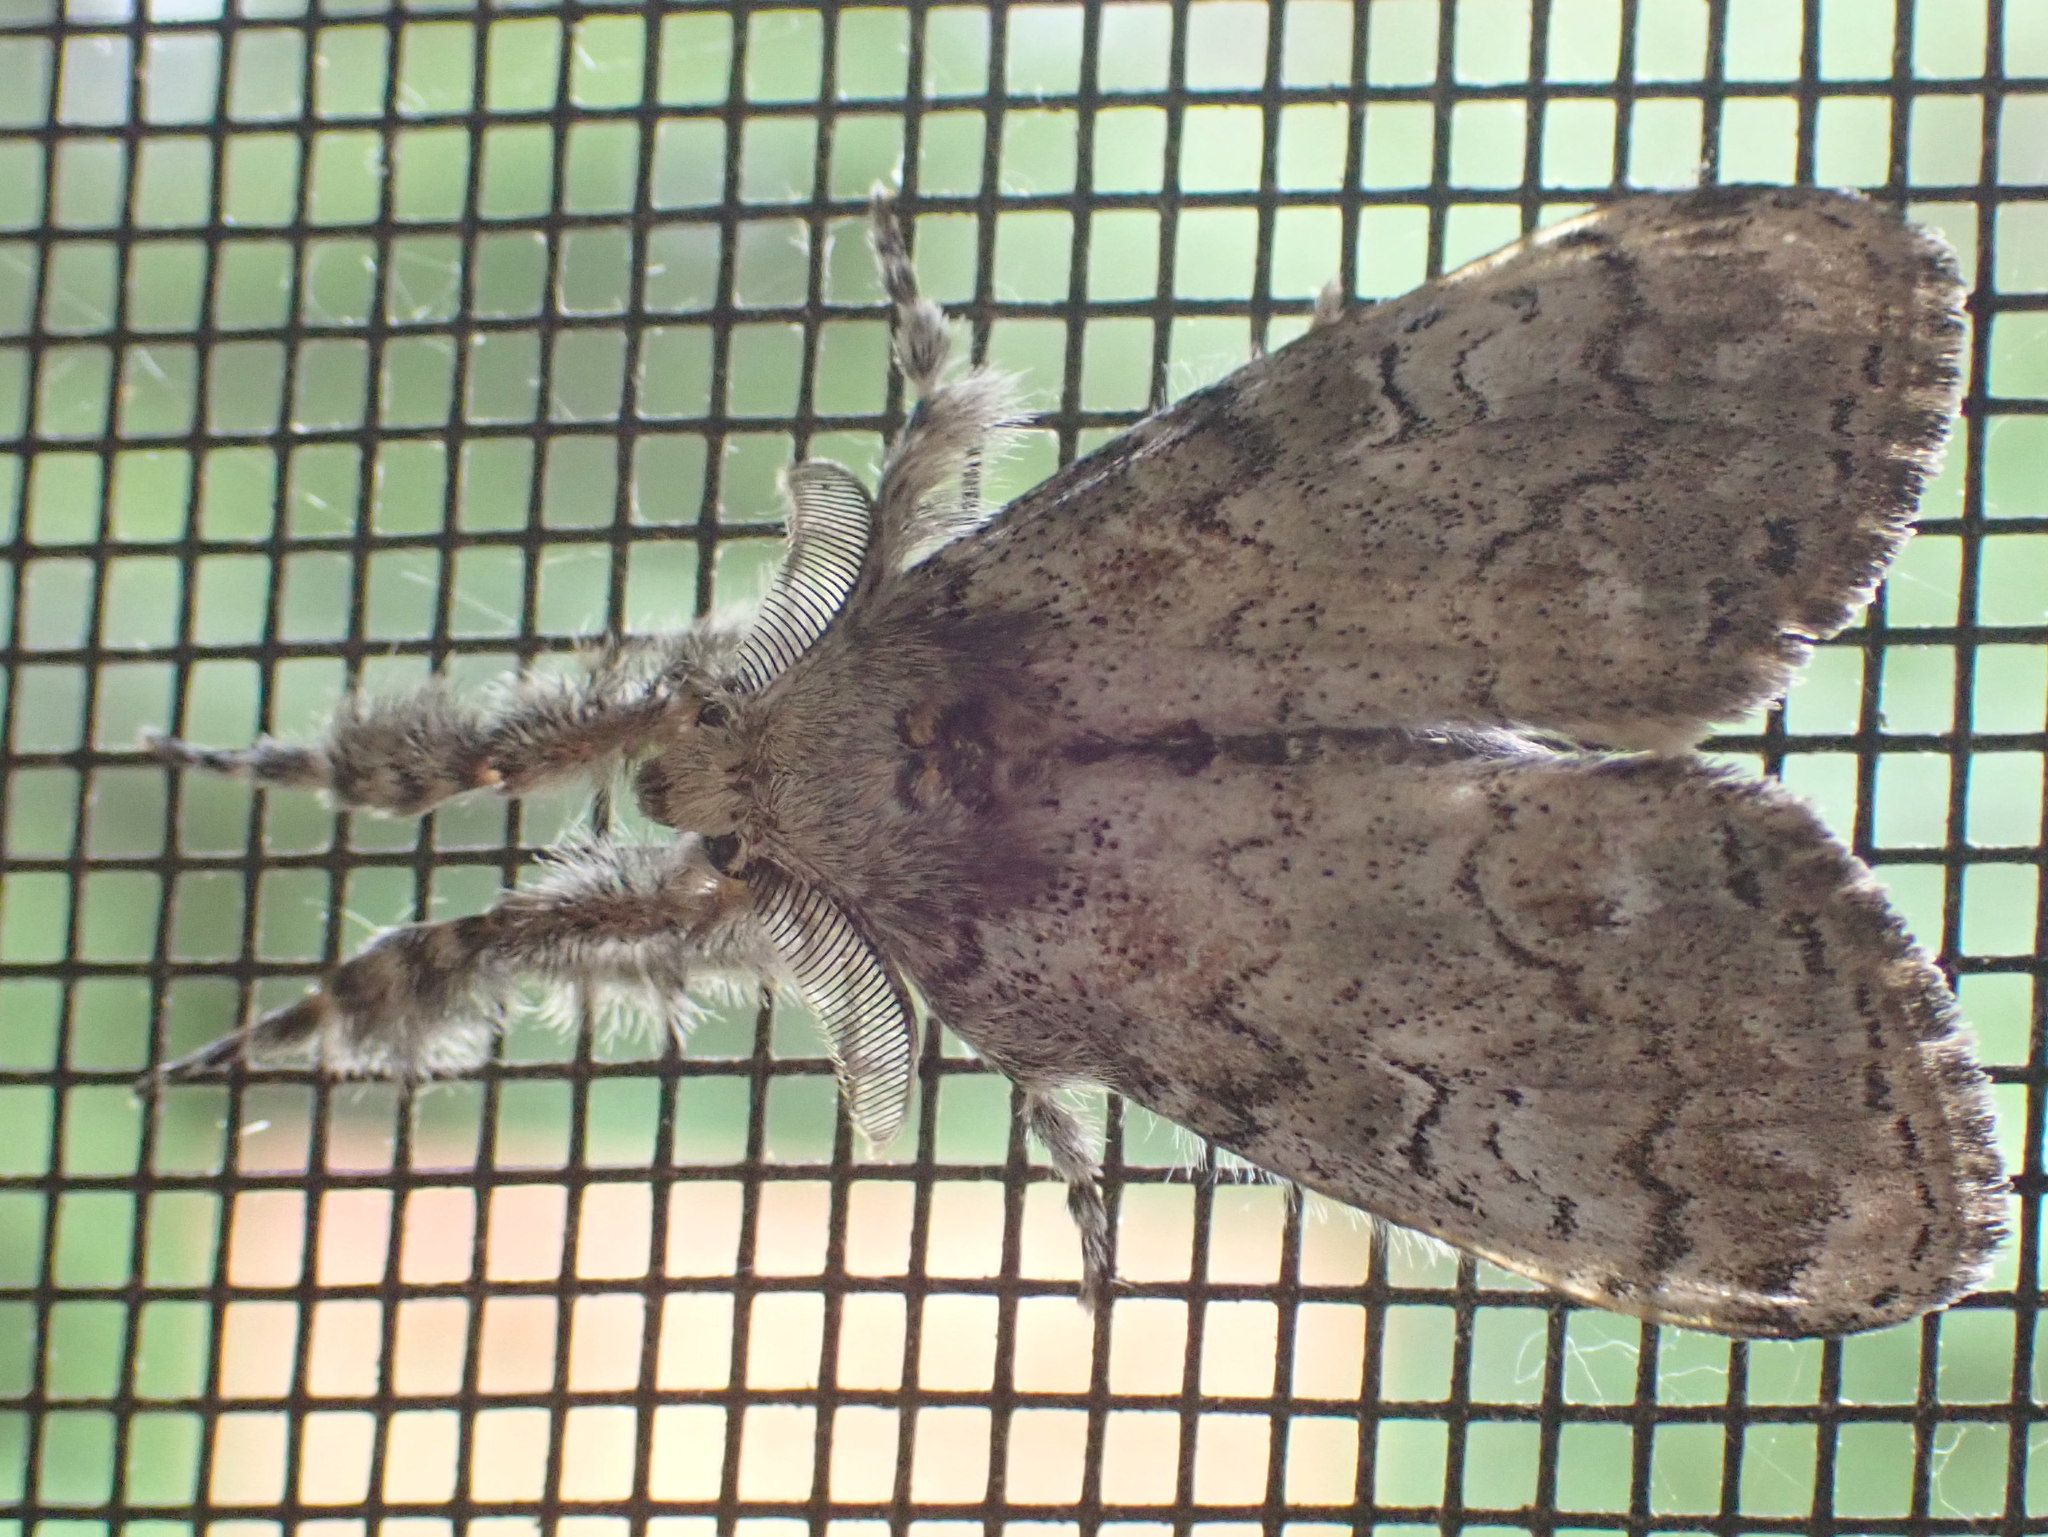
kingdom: Animalia
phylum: Arthropoda
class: Insecta
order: Lepidoptera
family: Erebidae
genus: Dasychira
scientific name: Dasychira plagiata
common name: Northern pine tussock moth
